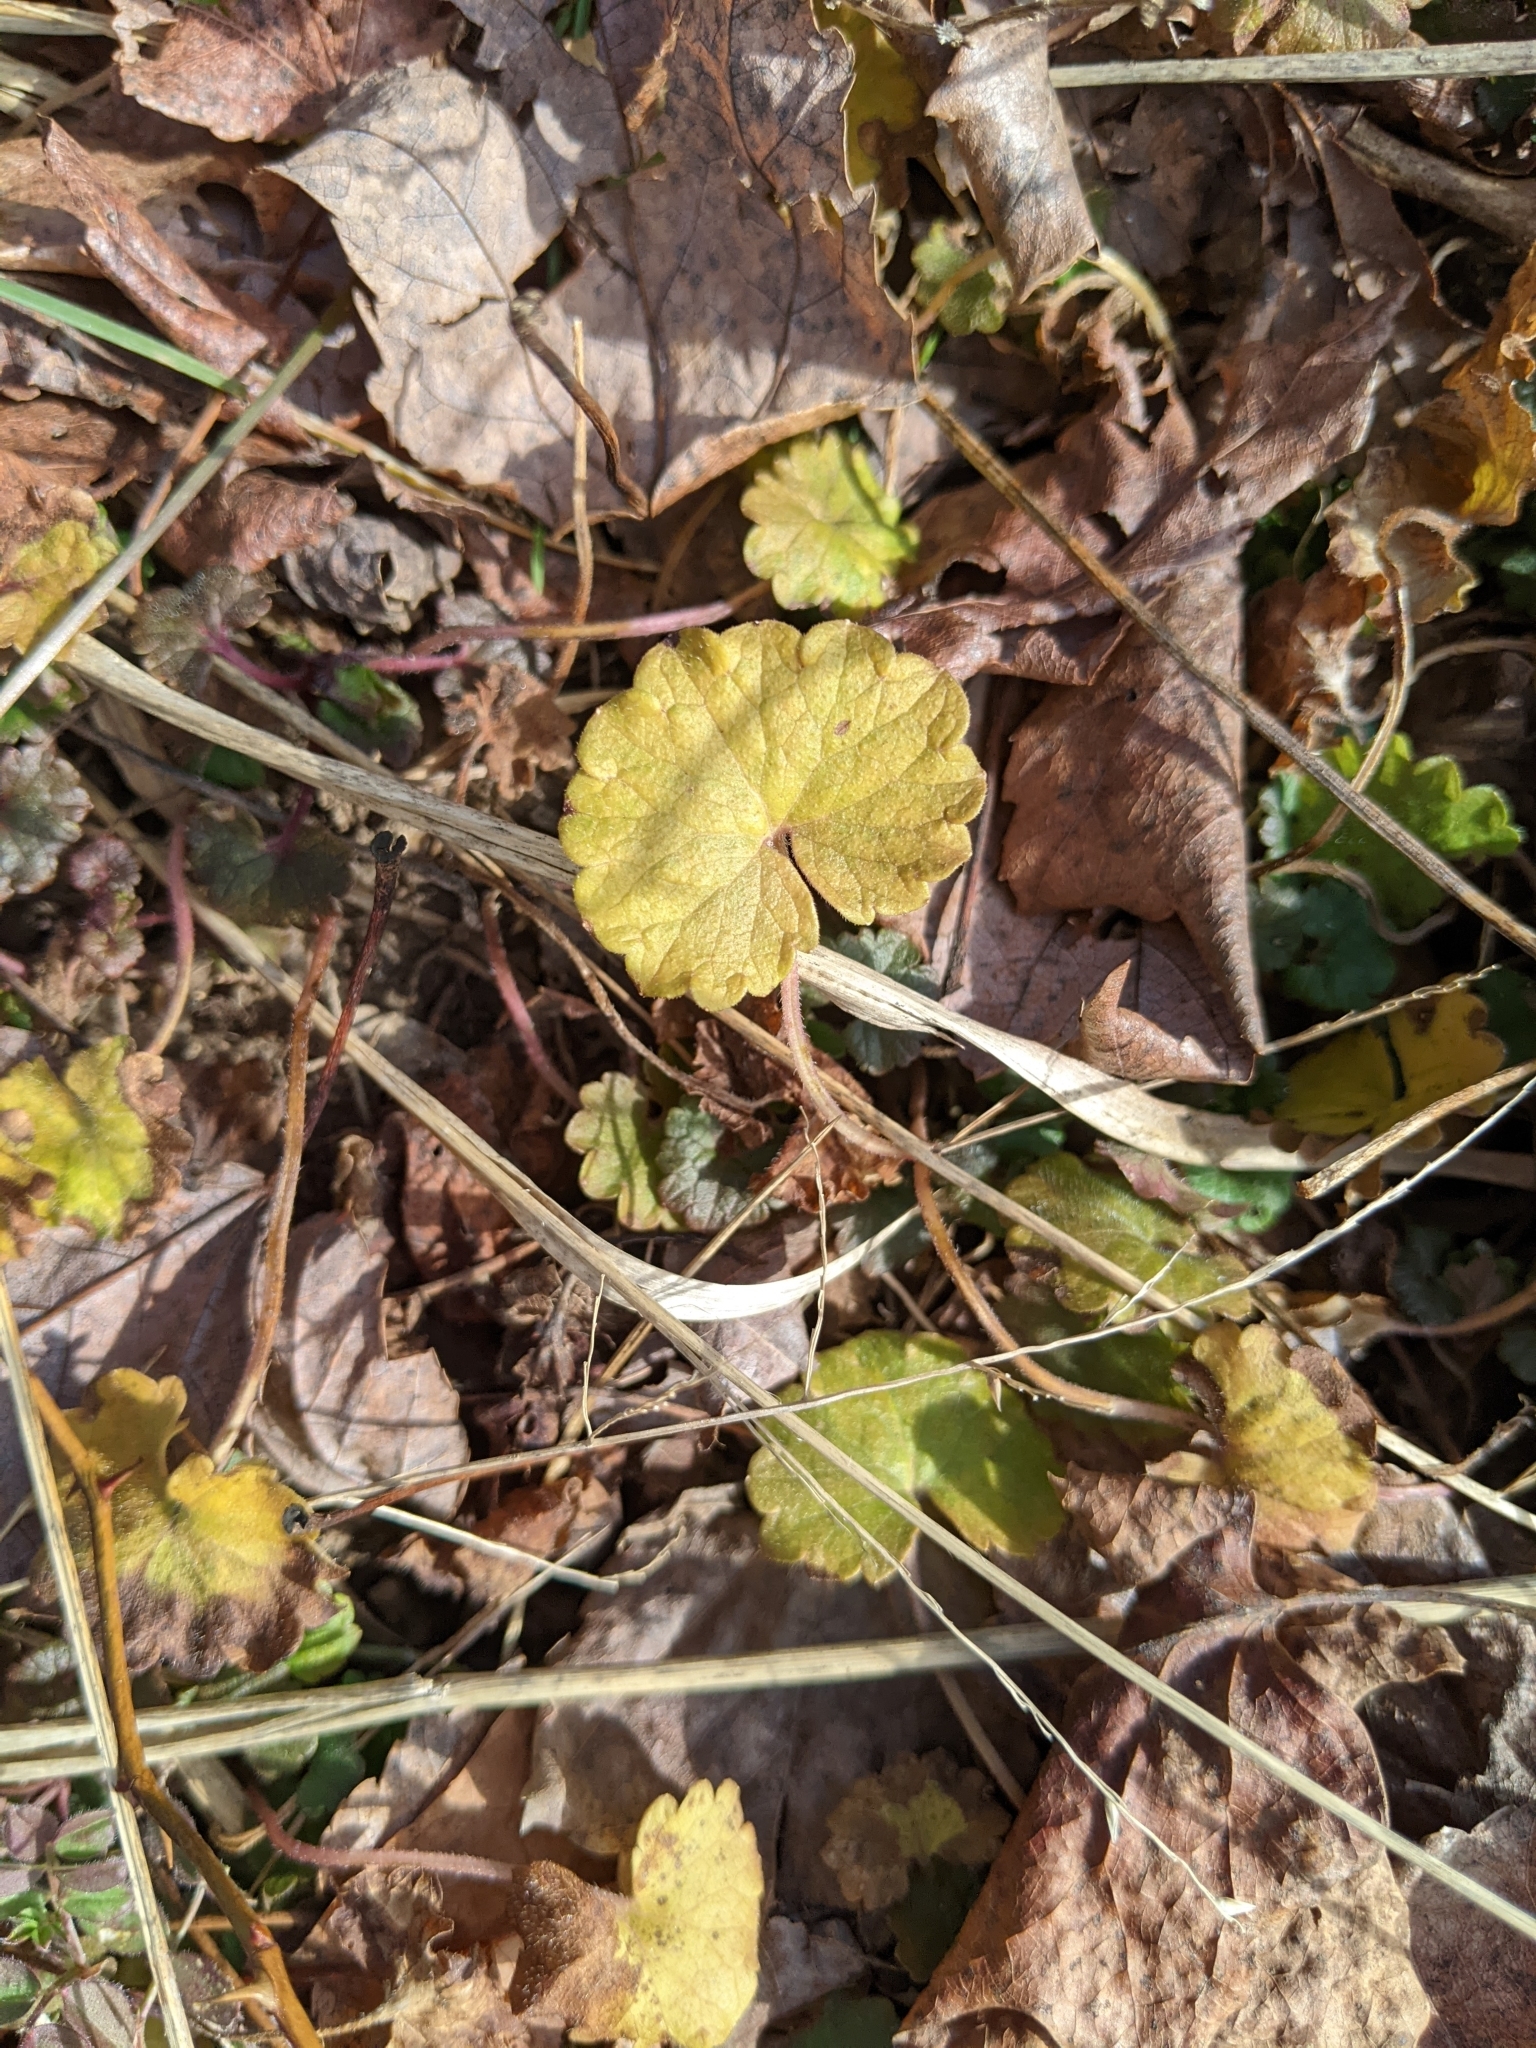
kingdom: Plantae
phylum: Tracheophyta
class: Magnoliopsida
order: Lamiales
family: Lamiaceae
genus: Glechoma
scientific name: Glechoma hederacea
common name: Ground ivy
